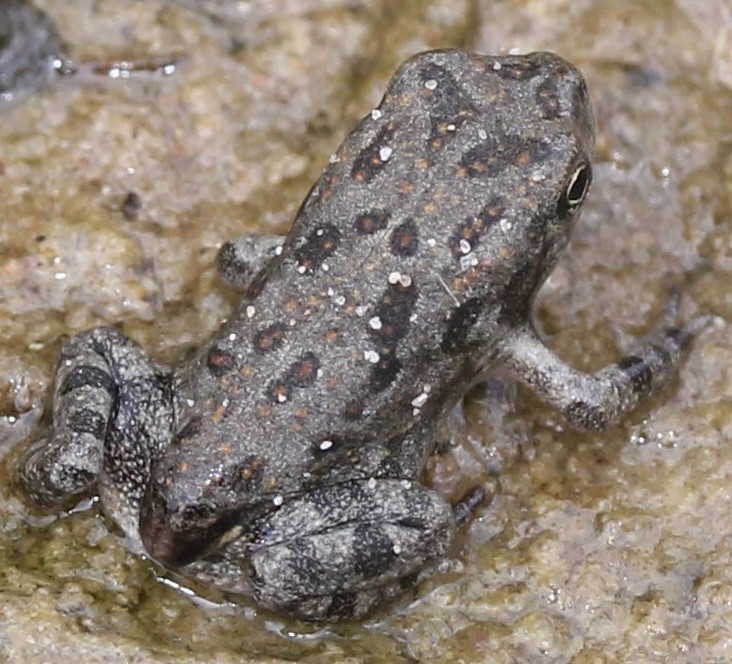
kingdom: Animalia
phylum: Chordata
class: Amphibia
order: Anura
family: Bufonidae
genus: Anaxyrus
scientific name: Anaxyrus
